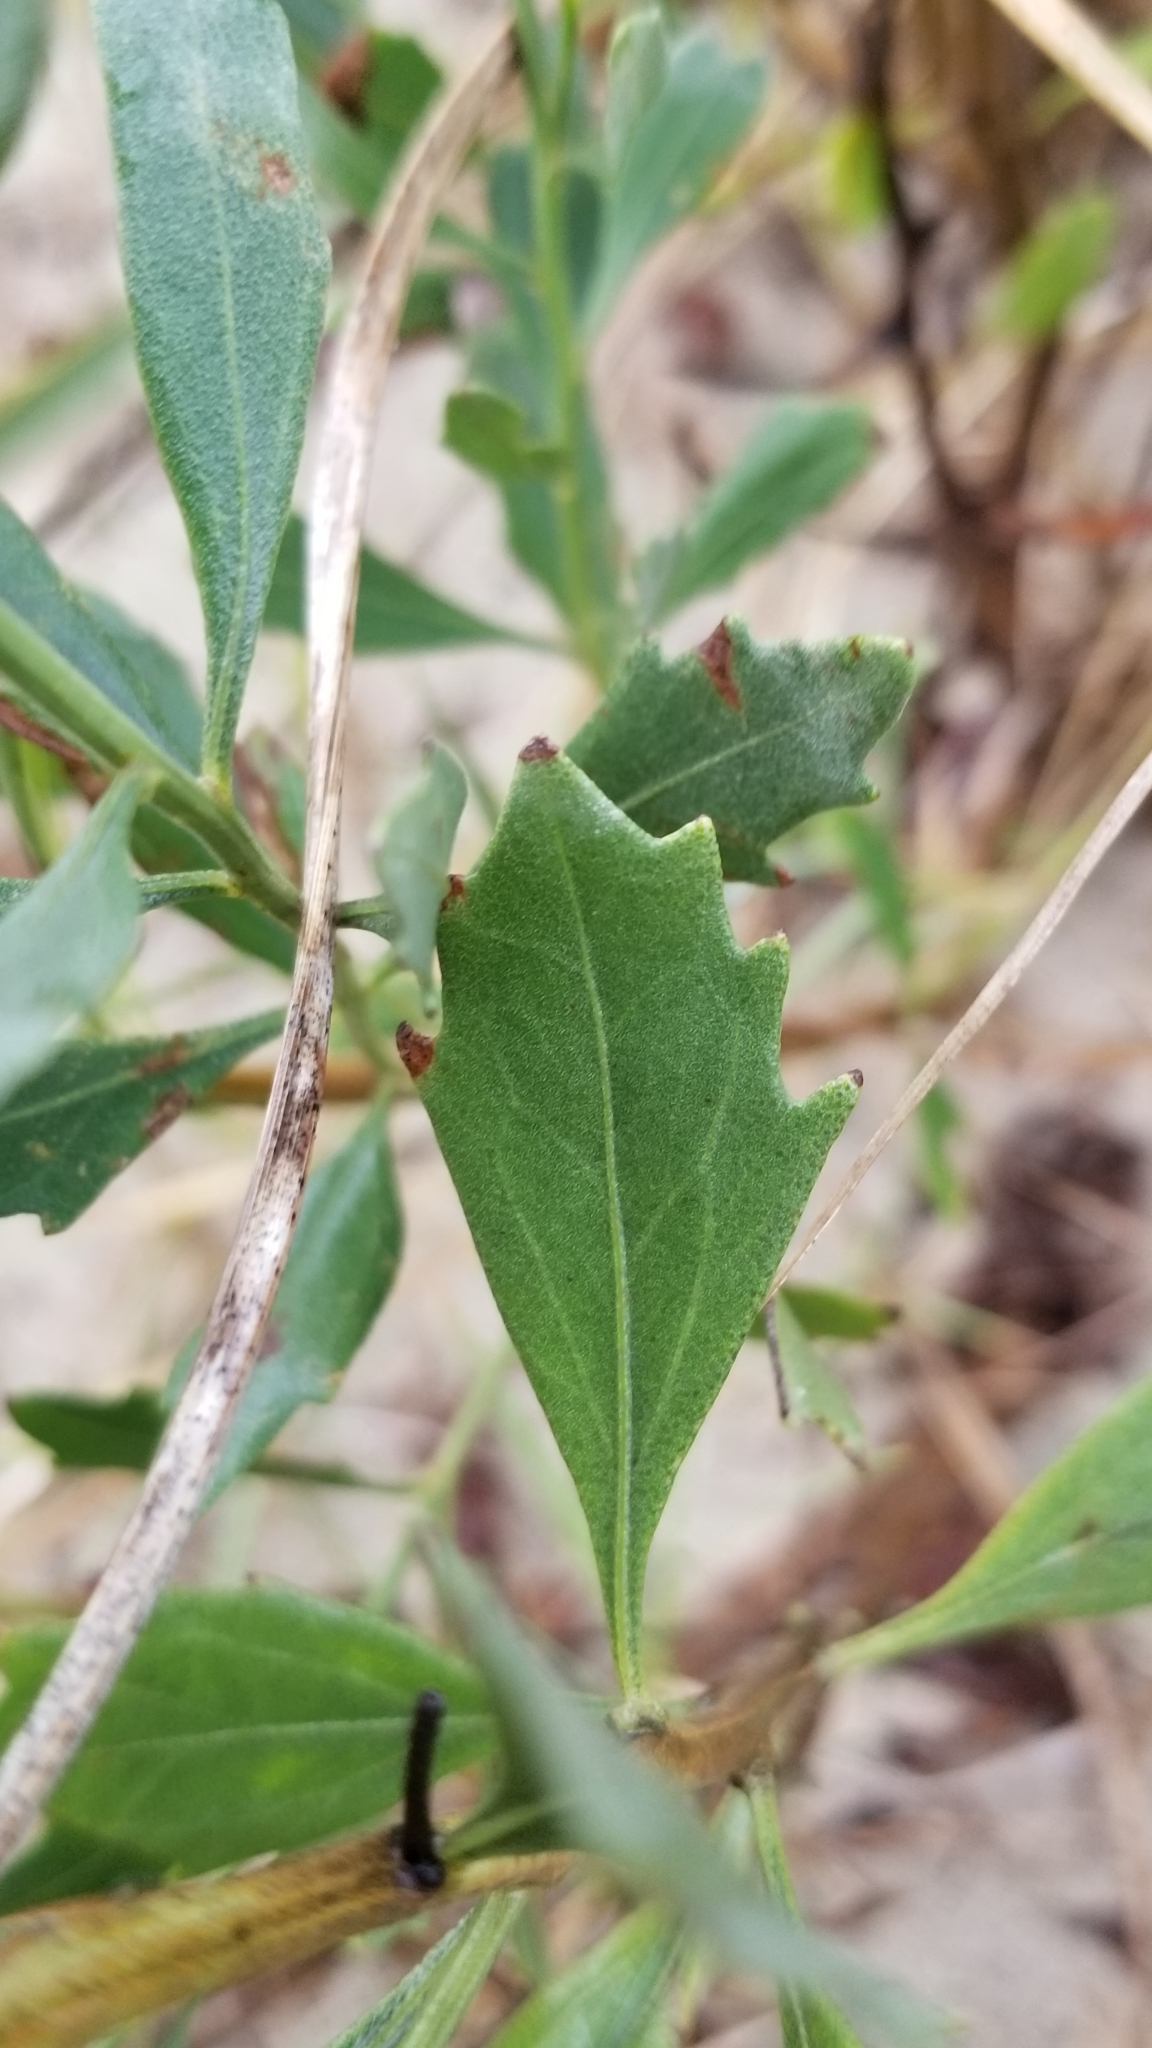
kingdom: Plantae
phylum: Tracheophyta
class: Magnoliopsida
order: Asterales
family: Asteraceae
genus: Baccharis
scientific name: Baccharis halimifolia
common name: Eastern baccharis
